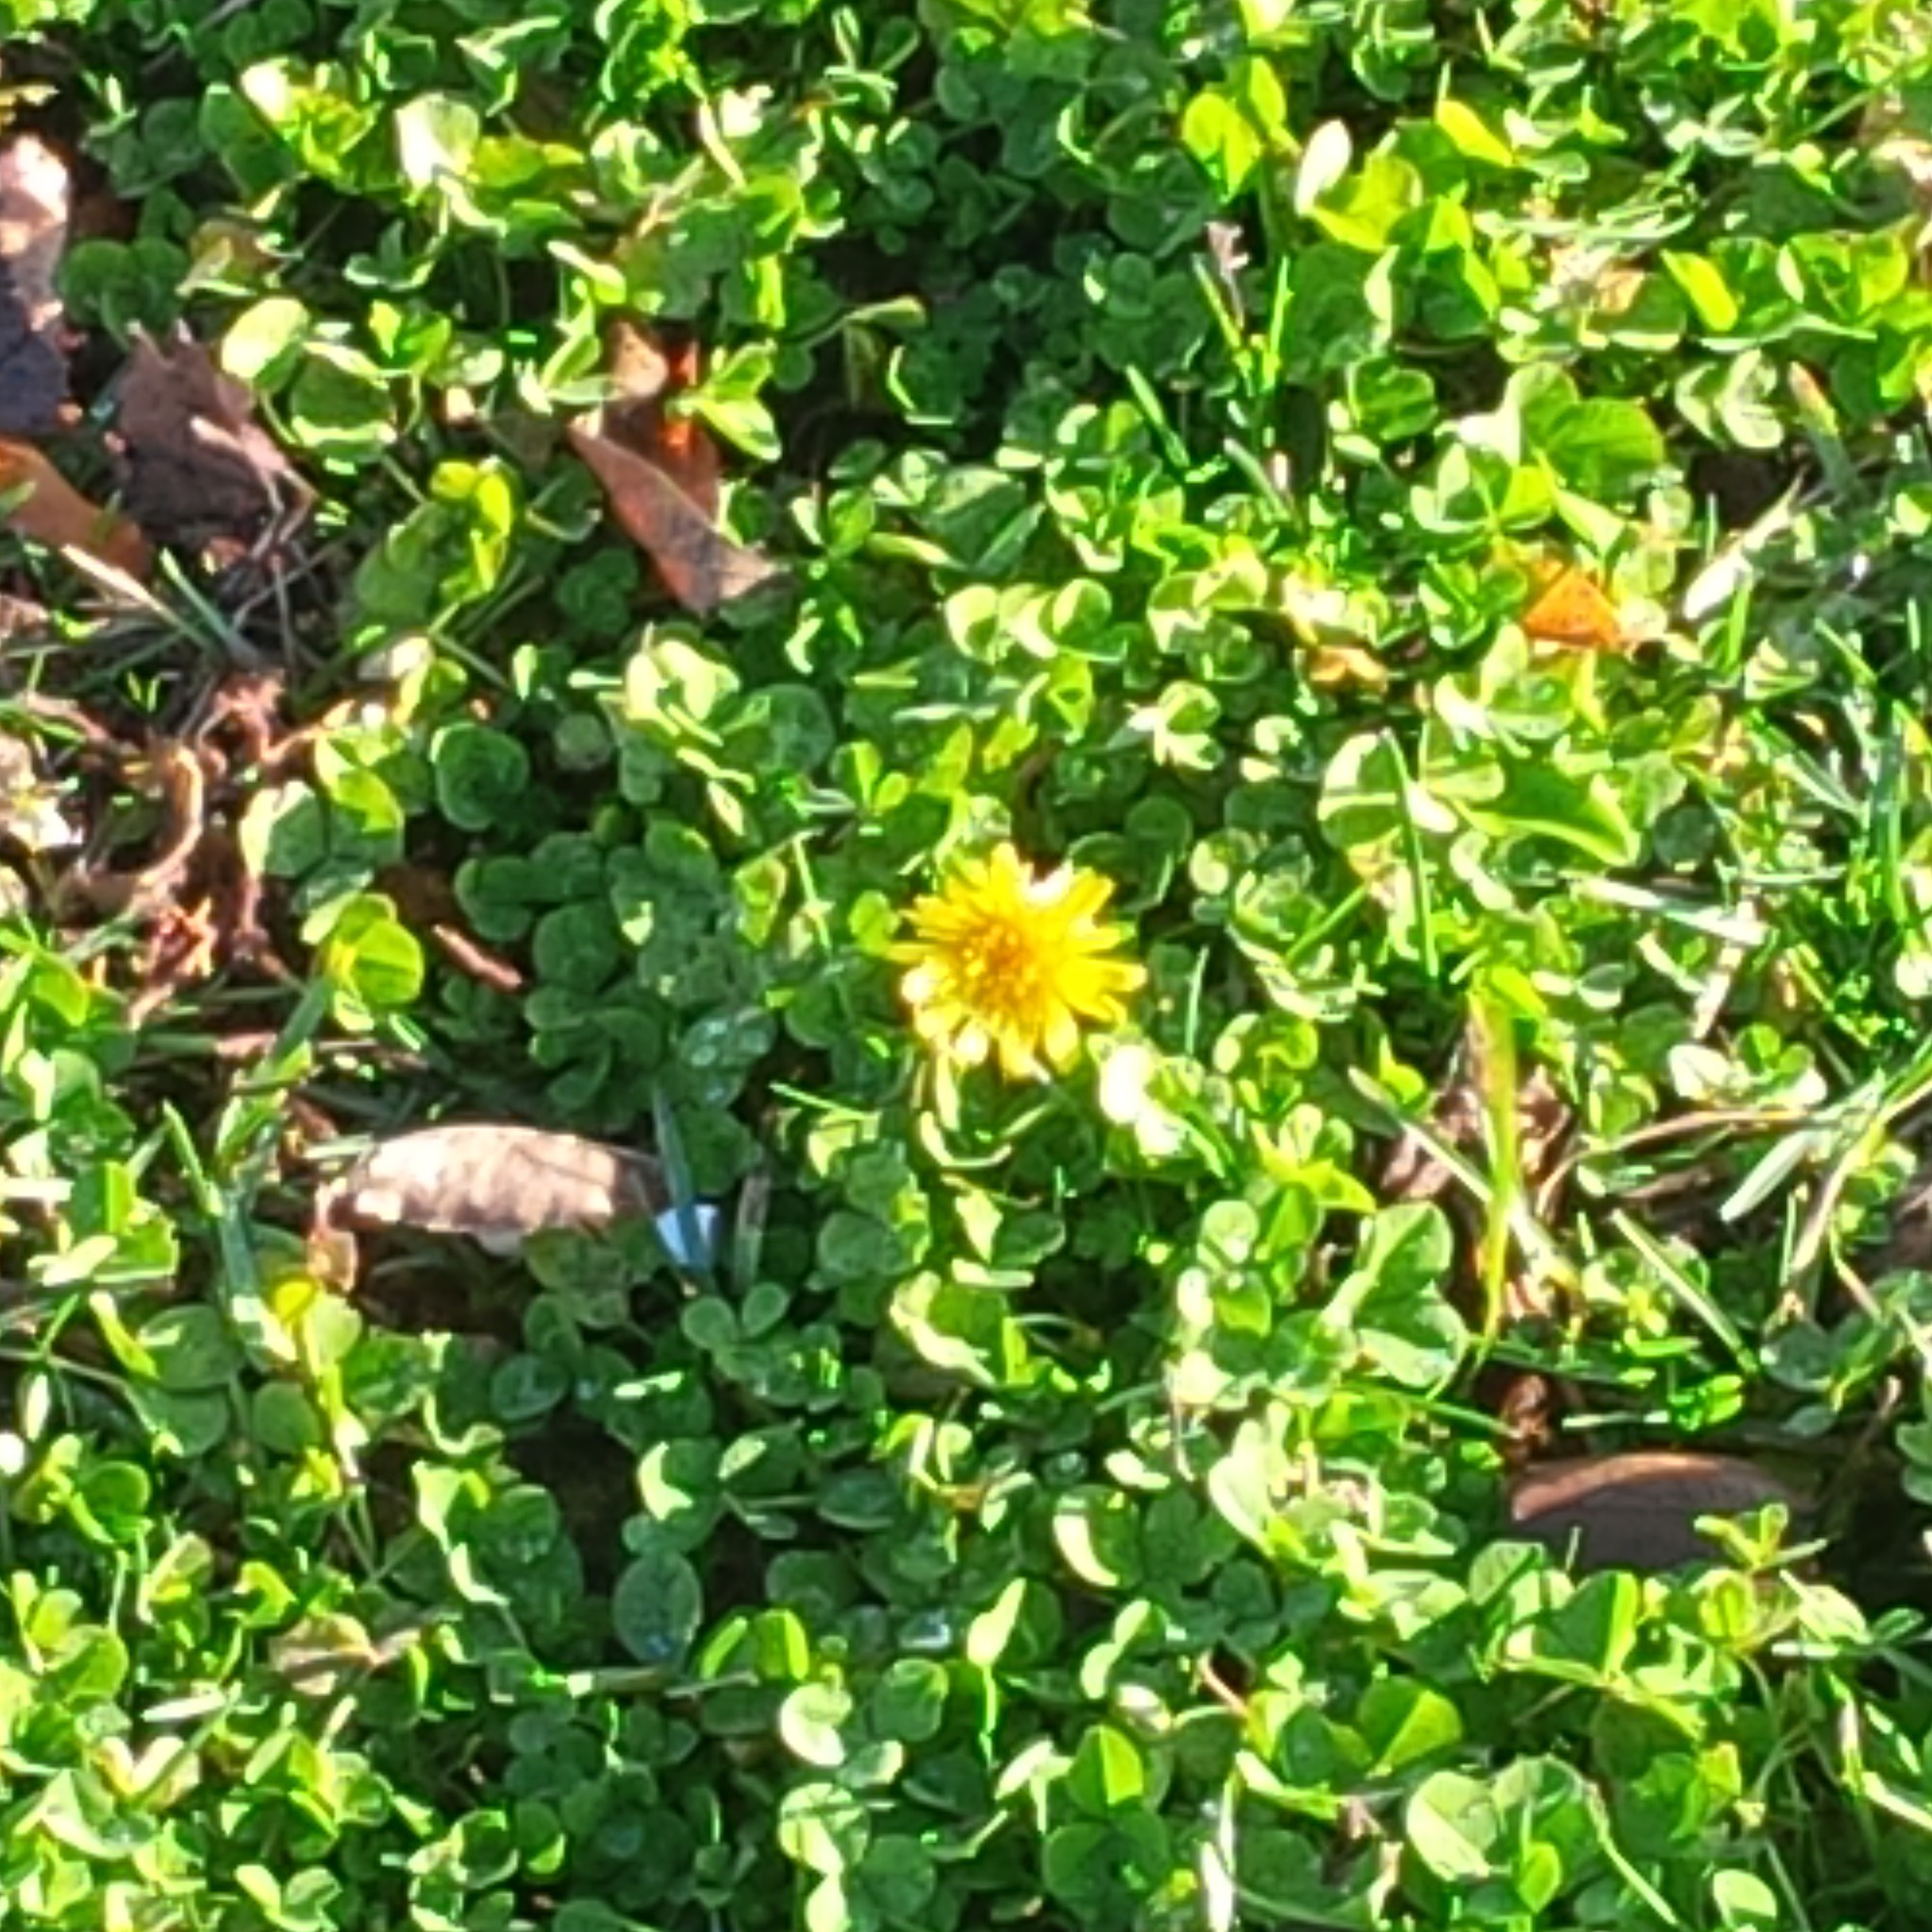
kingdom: Plantae
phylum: Tracheophyta
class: Magnoliopsida
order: Asterales
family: Asteraceae
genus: Taraxacum
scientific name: Taraxacum officinale
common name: Common dandelion
